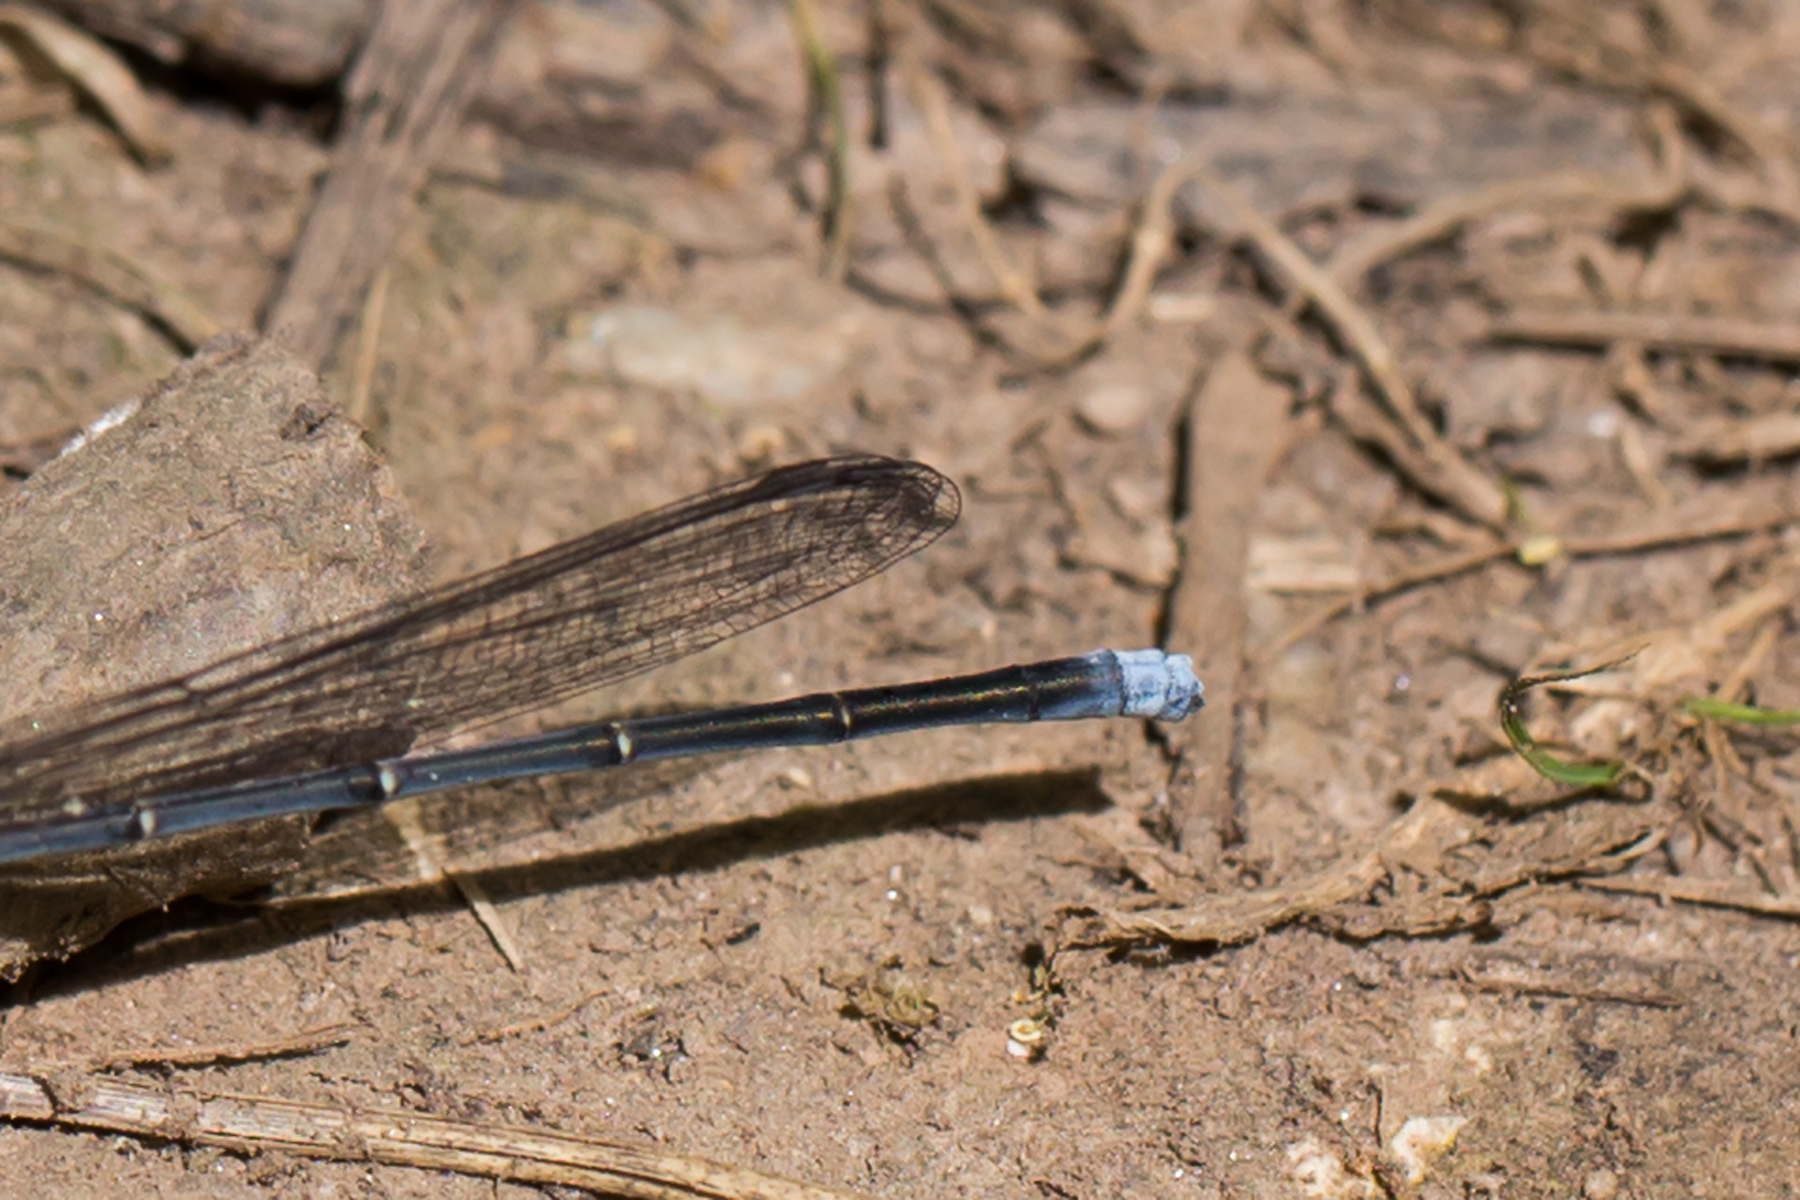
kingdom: Animalia
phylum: Arthropoda
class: Insecta
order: Odonata
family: Coenagrionidae
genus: Argia
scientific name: Argia moesta
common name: Powdered dancer
